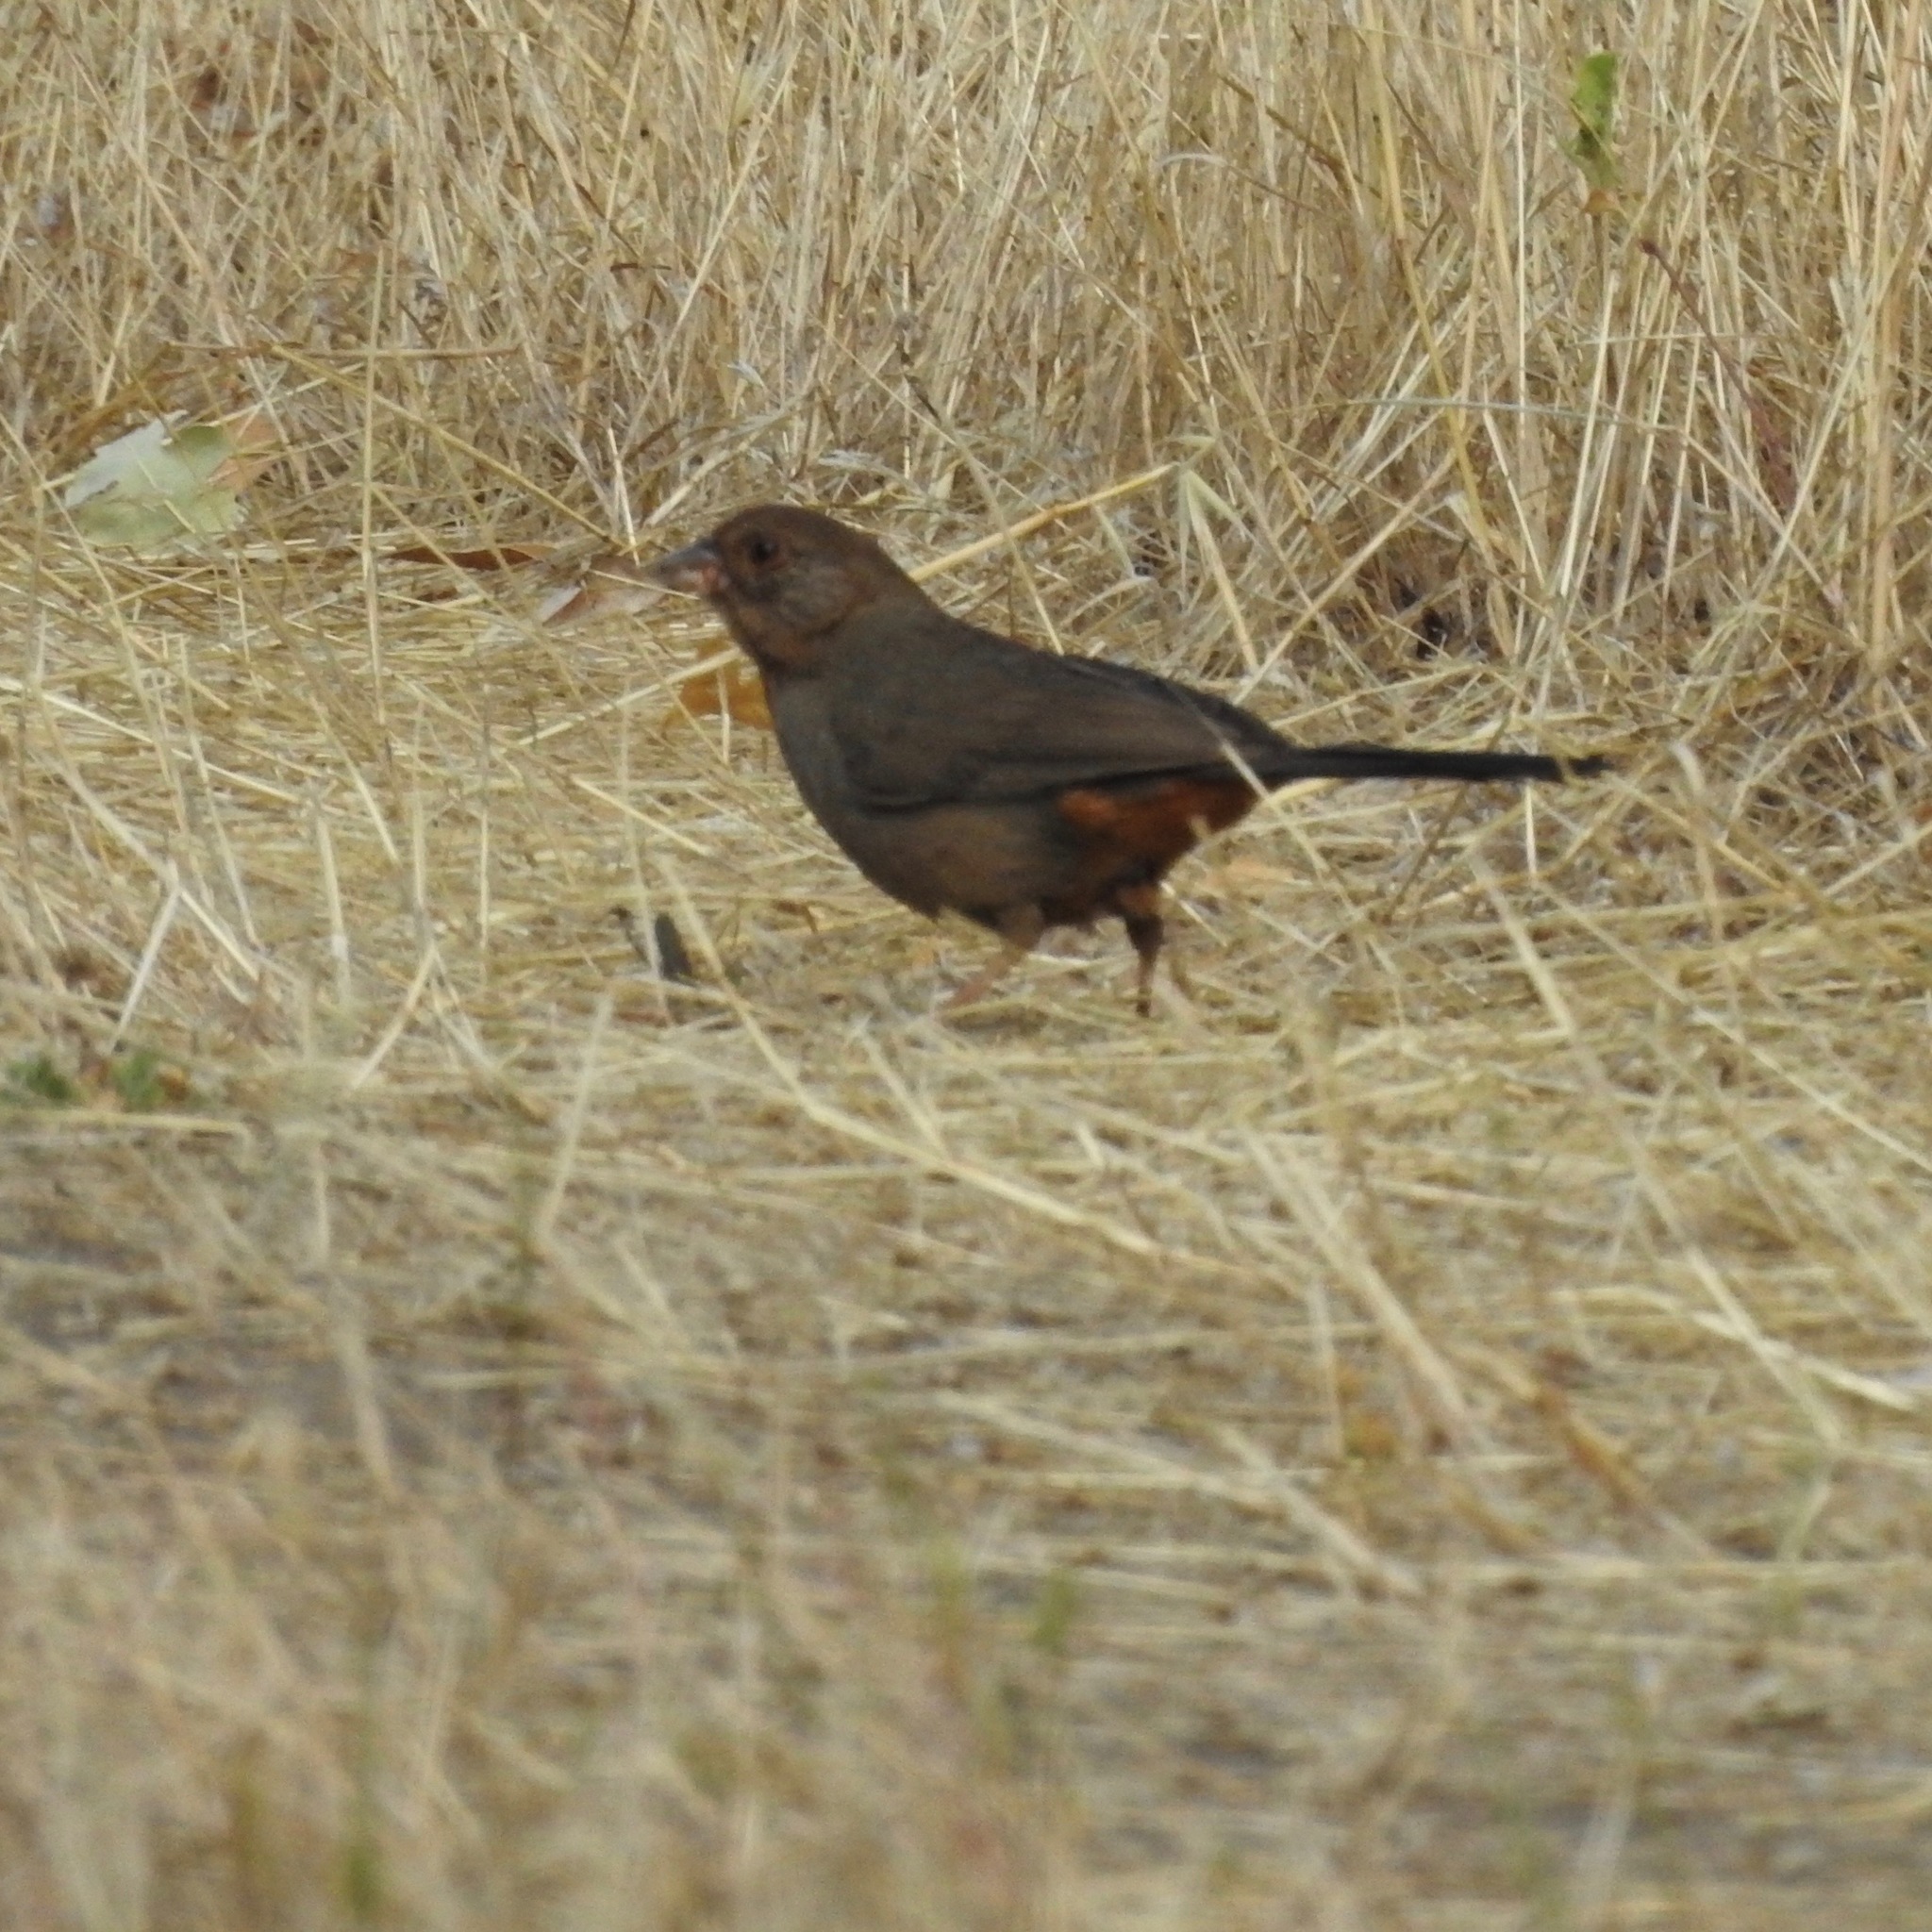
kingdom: Animalia
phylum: Chordata
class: Aves
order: Passeriformes
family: Passerellidae
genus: Melozone
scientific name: Melozone crissalis
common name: California towhee
